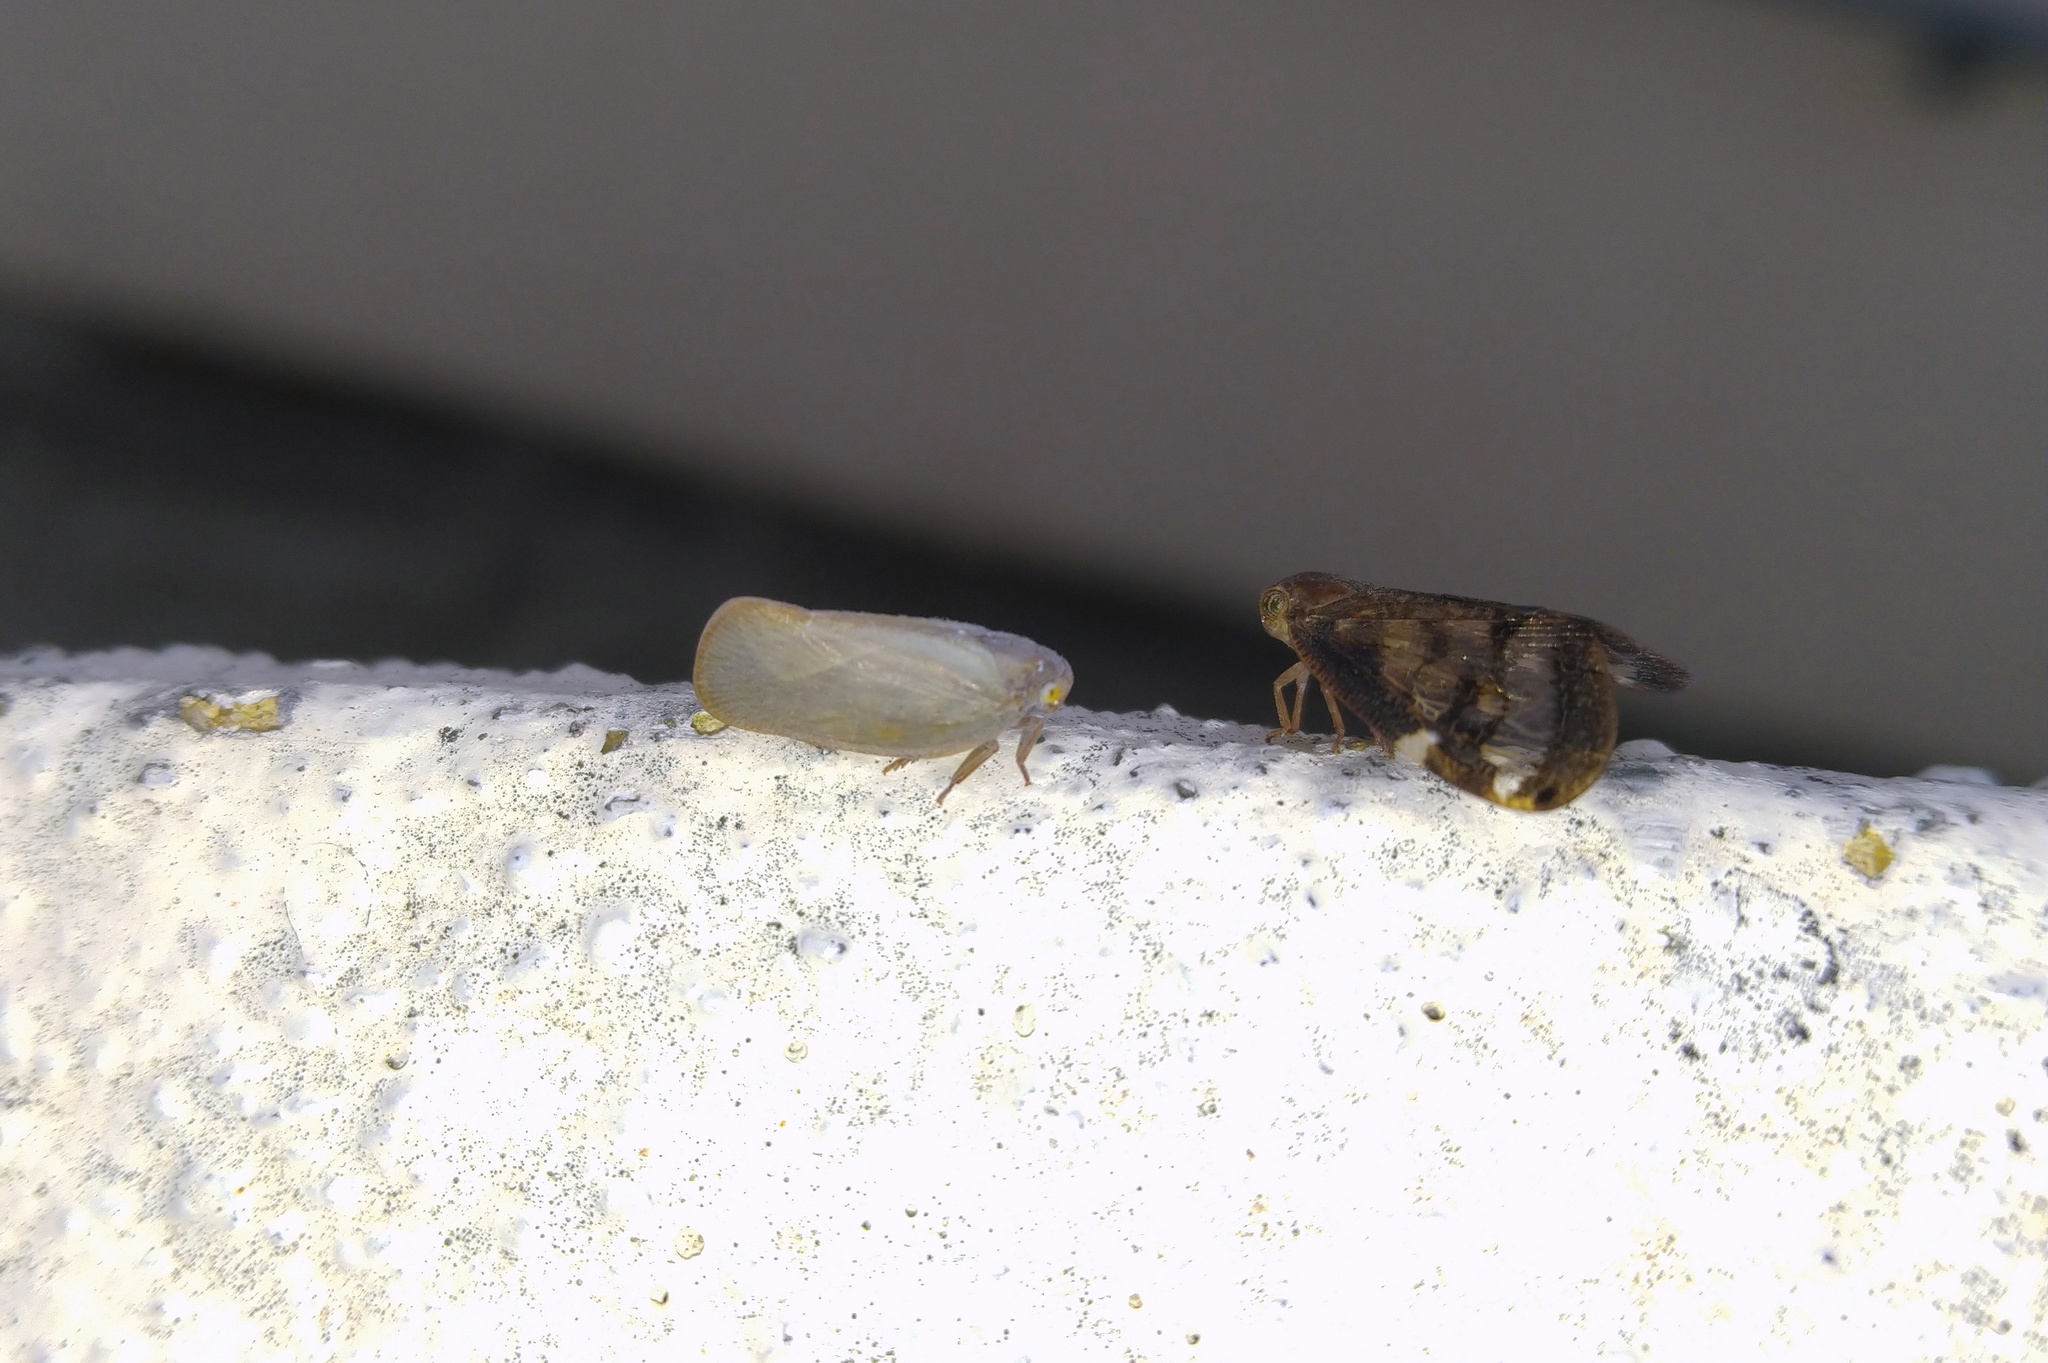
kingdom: Animalia
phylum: Arthropoda
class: Insecta
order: Hemiptera
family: Ricaniidae
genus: Scolypopa
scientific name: Scolypopa australis
